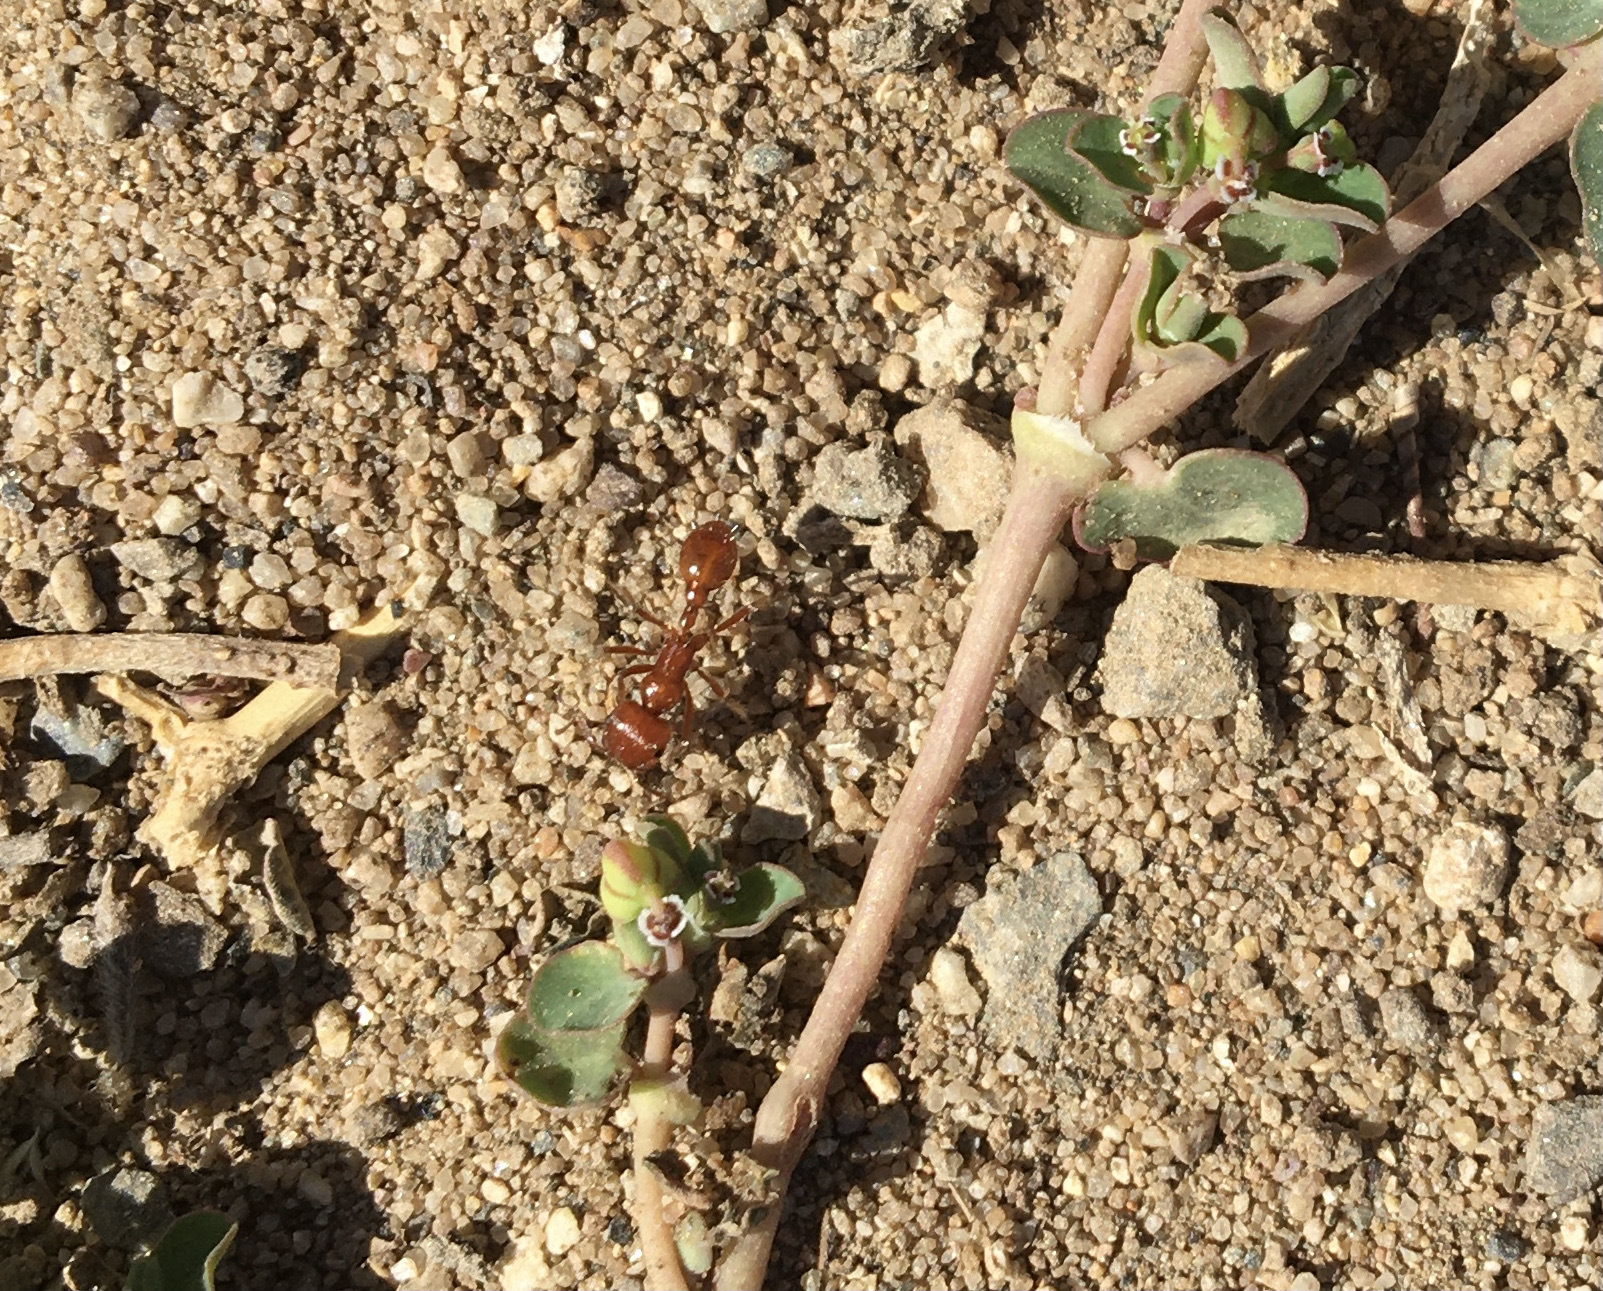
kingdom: Animalia
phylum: Arthropoda
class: Insecta
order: Hymenoptera
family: Formicidae
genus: Pogonomyrmex
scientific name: Pogonomyrmex californicus
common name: California harvester ant
